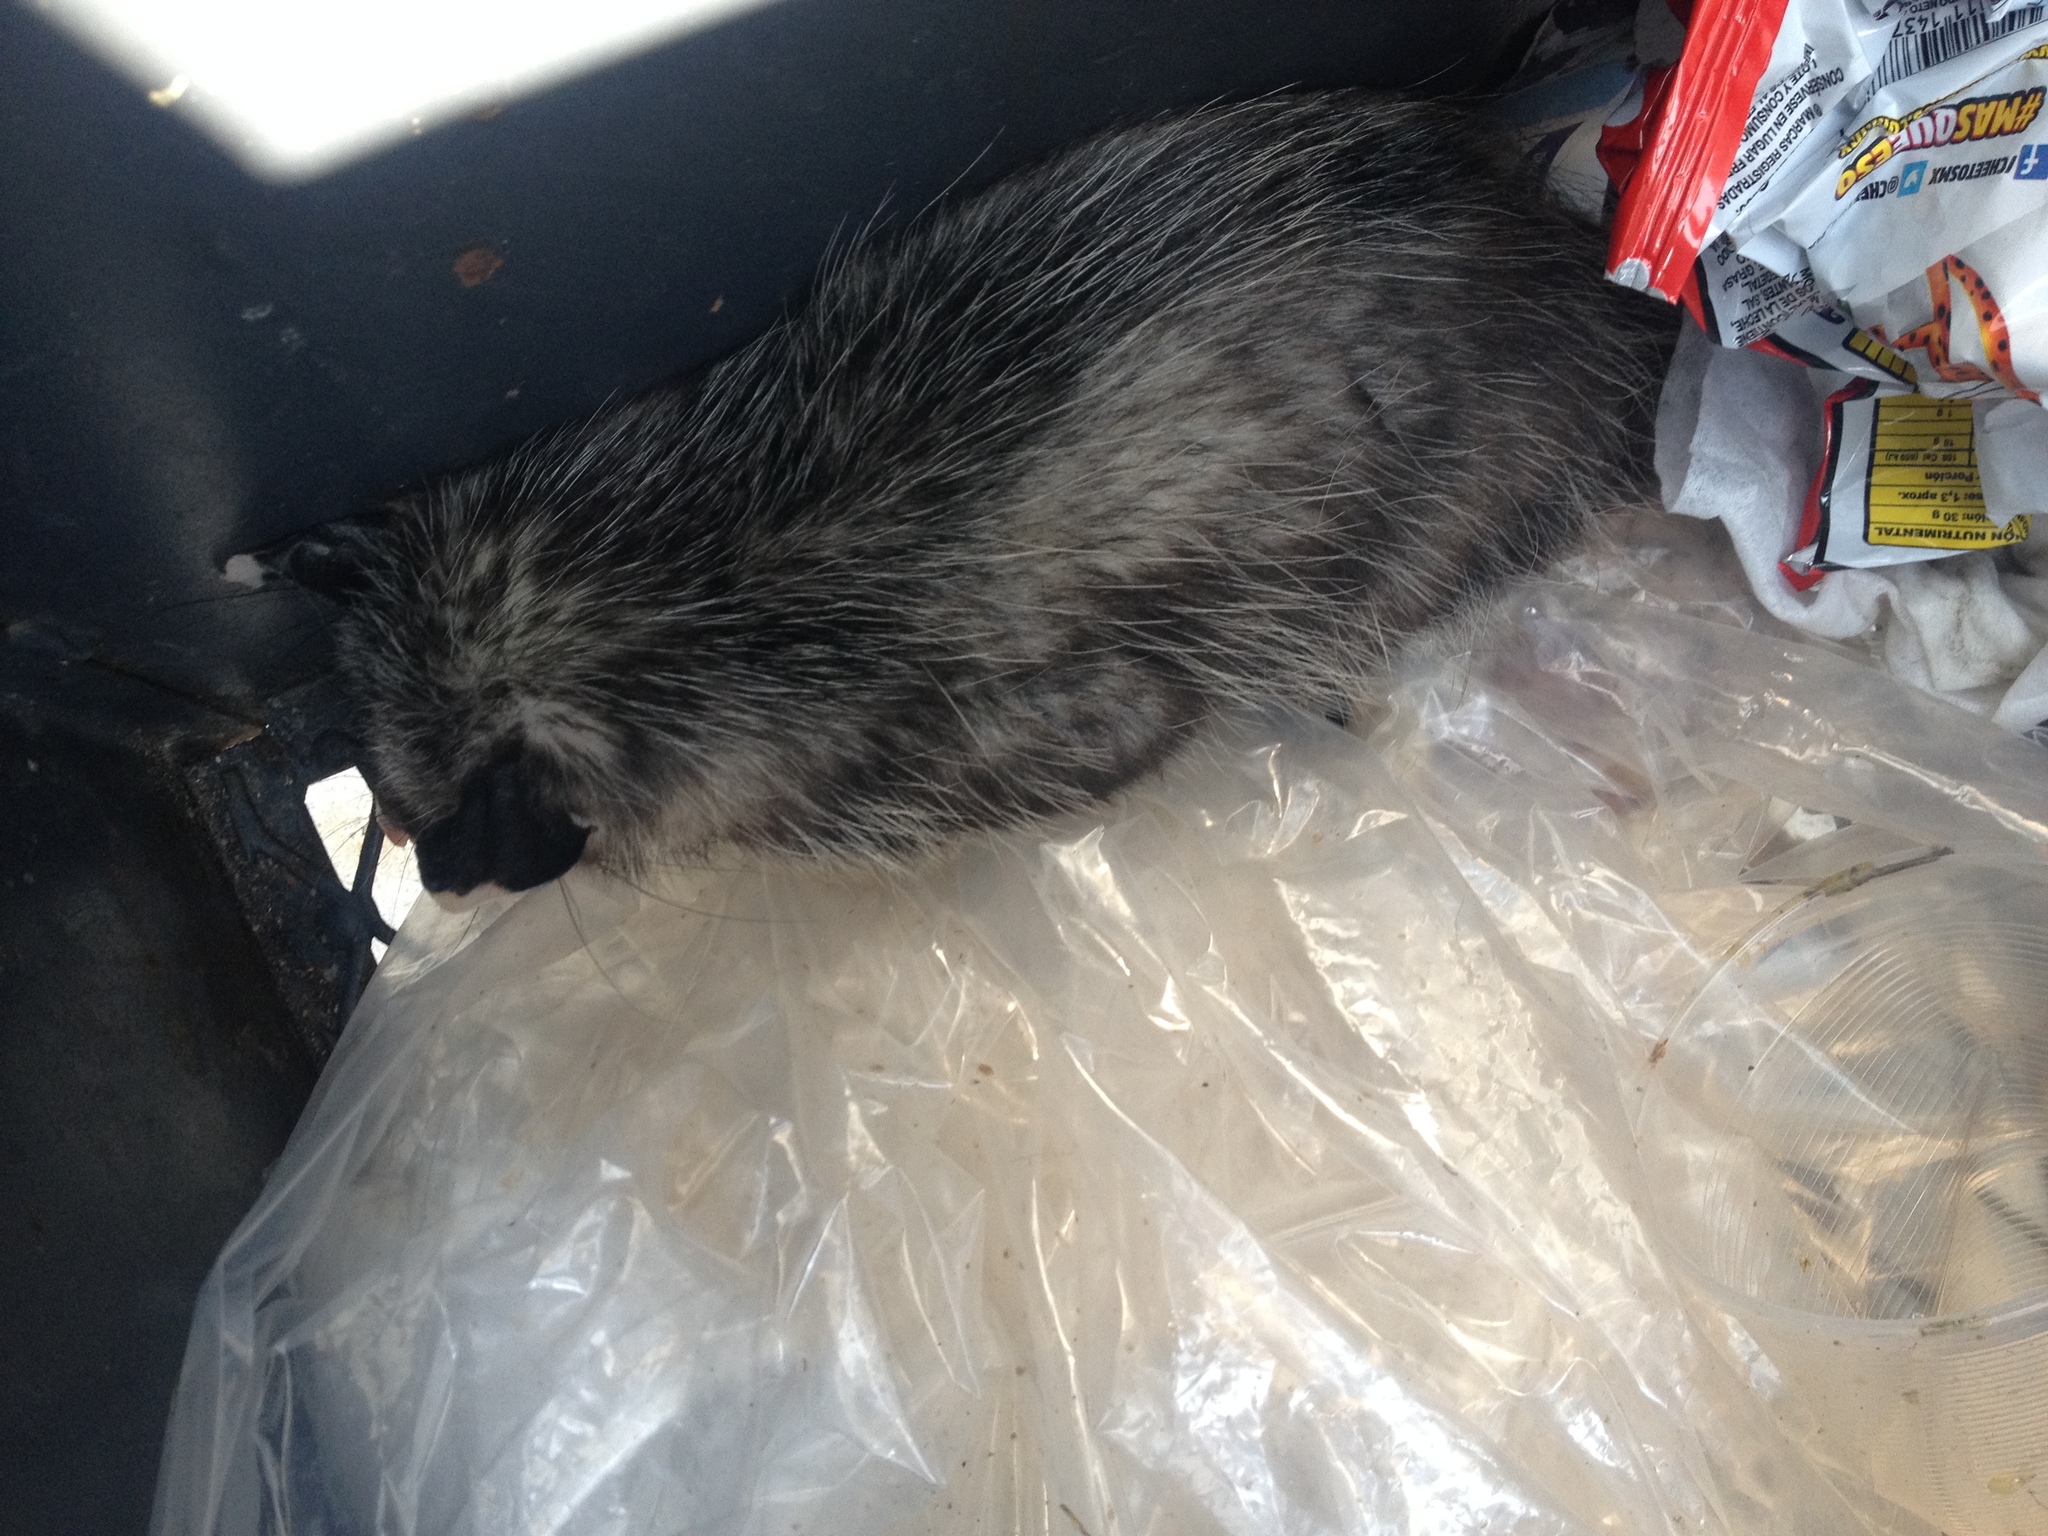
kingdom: Animalia
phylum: Chordata
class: Mammalia
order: Didelphimorphia
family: Didelphidae
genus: Didelphis
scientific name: Didelphis virginiana
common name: Virginia opossum
